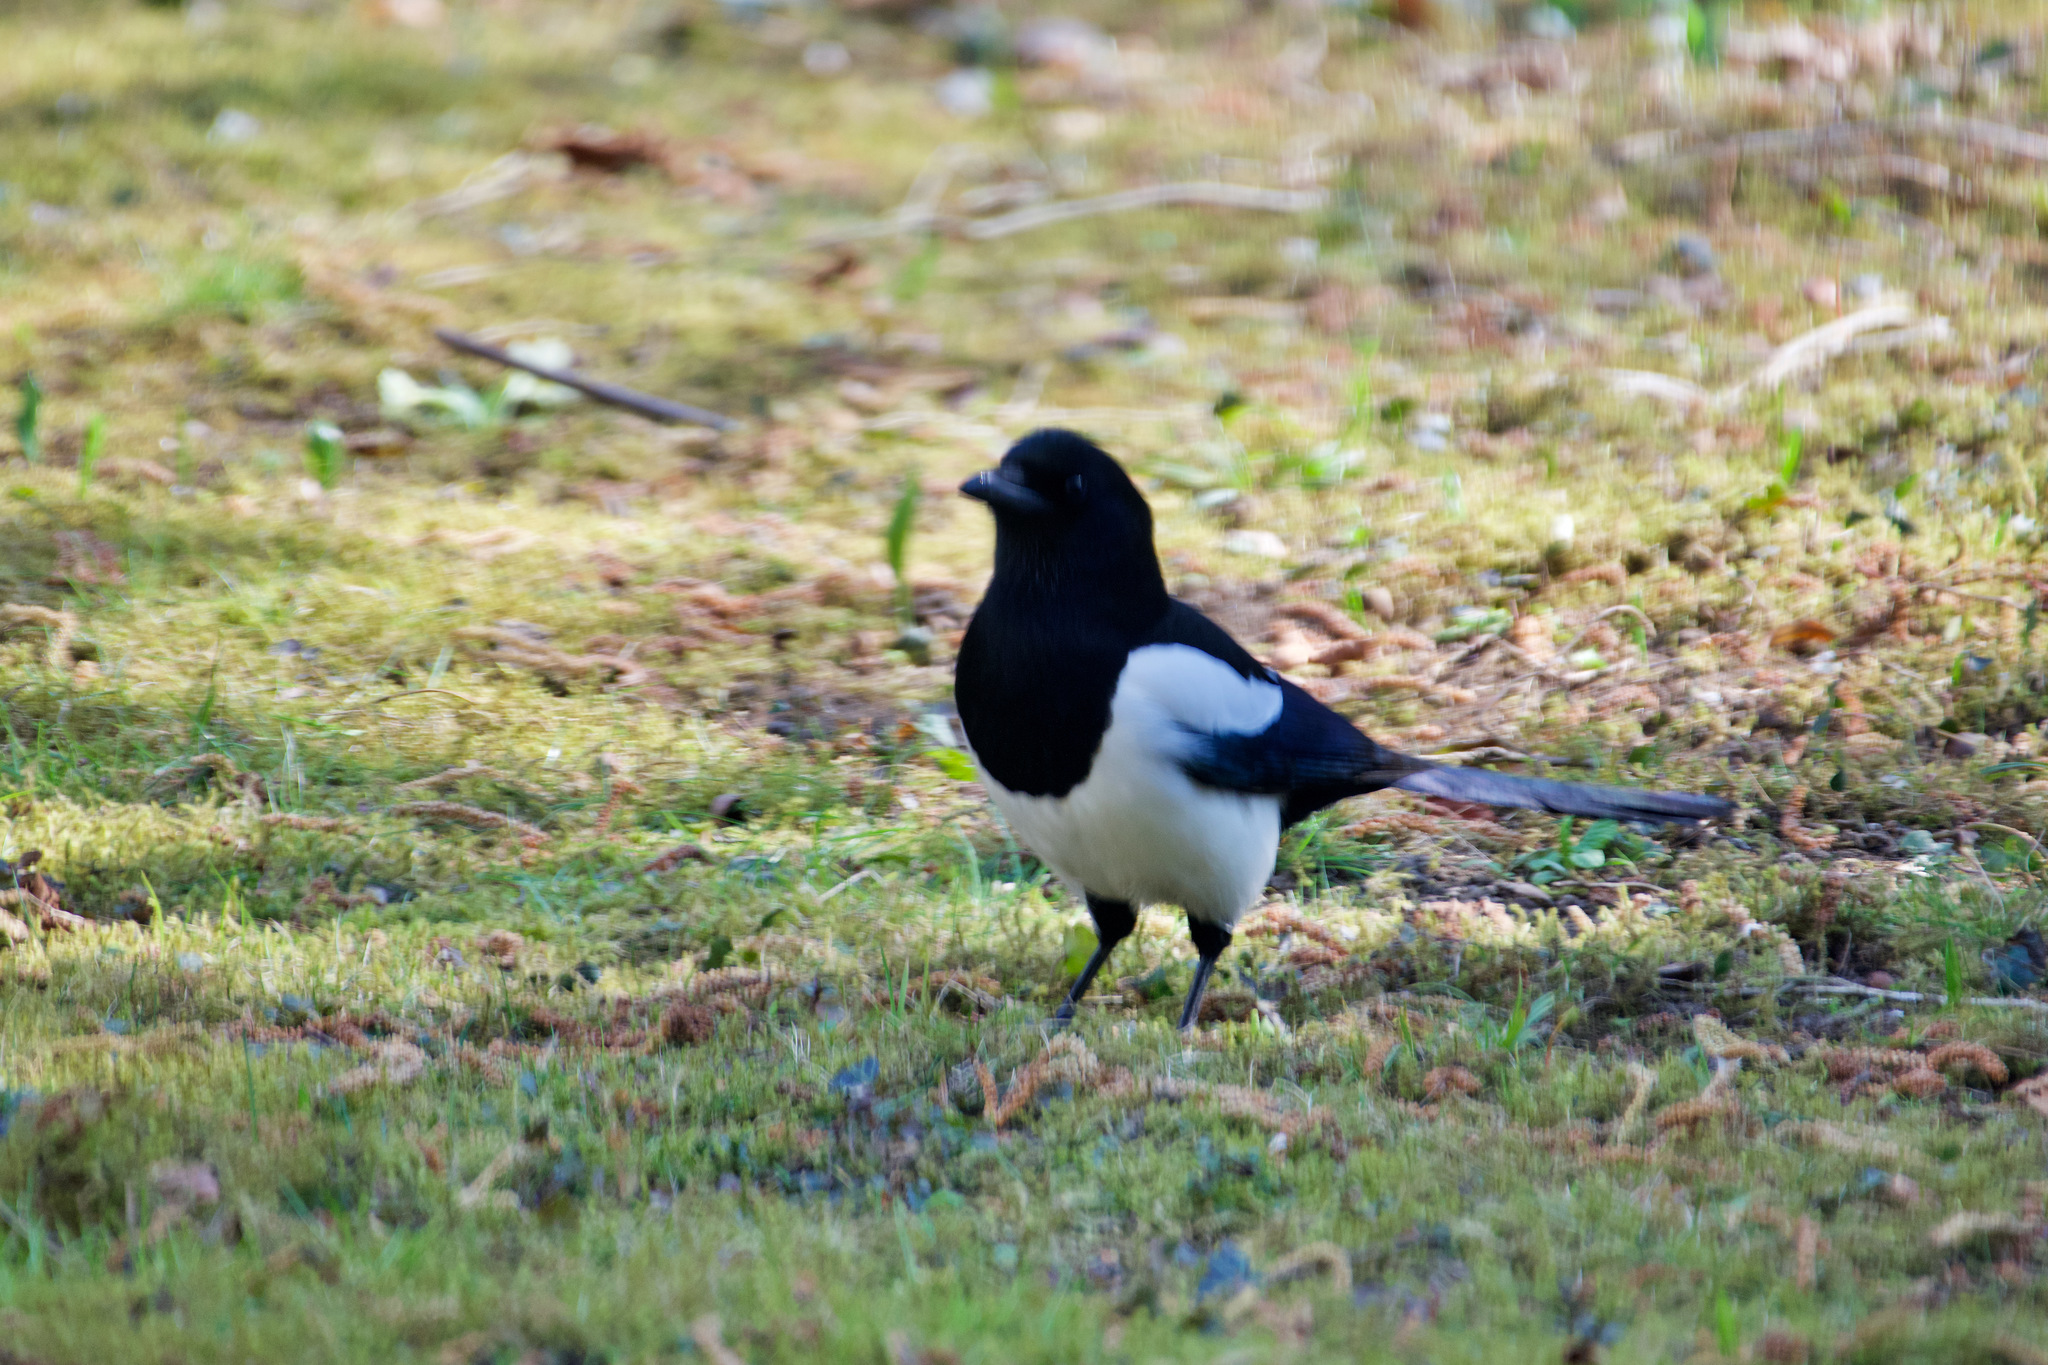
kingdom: Animalia
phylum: Chordata
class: Aves
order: Passeriformes
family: Corvidae
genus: Pica
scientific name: Pica pica
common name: Eurasian magpie
